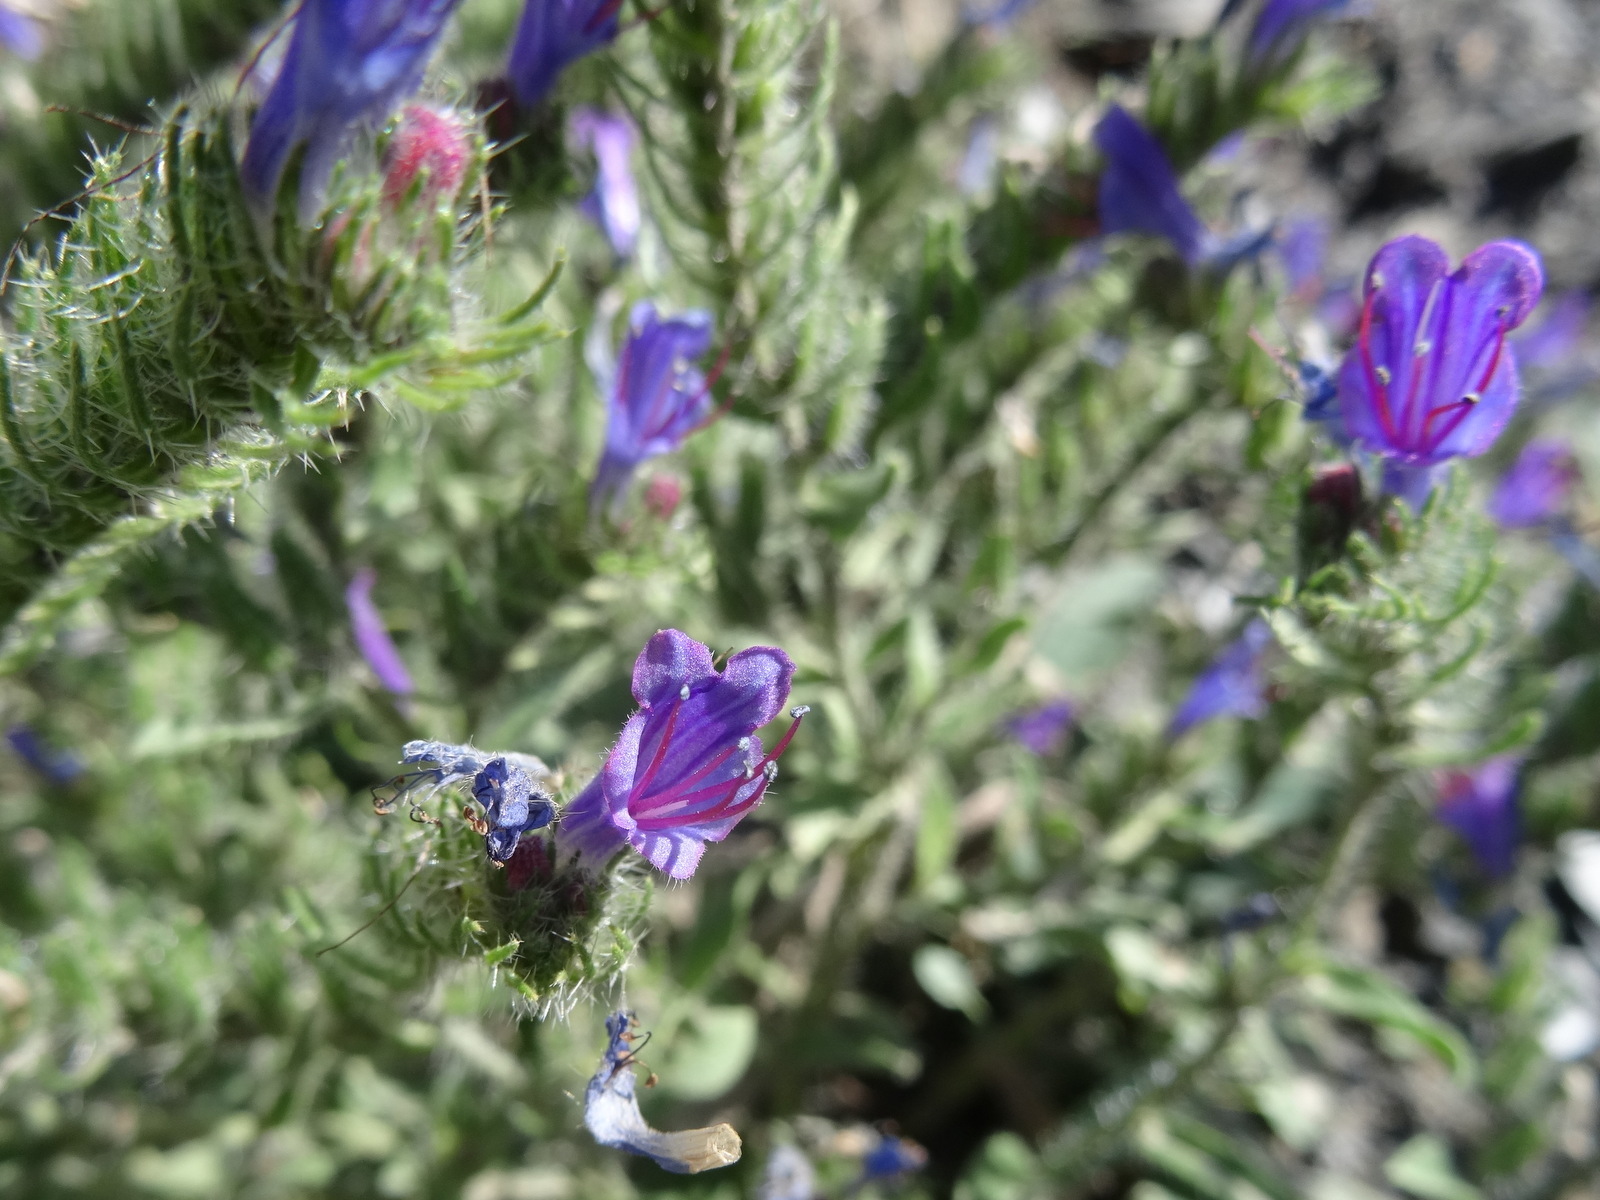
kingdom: Plantae
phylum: Tracheophyta
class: Magnoliopsida
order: Boraginales
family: Boraginaceae
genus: Echium
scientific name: Echium vulgare
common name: Common viper's bugloss
